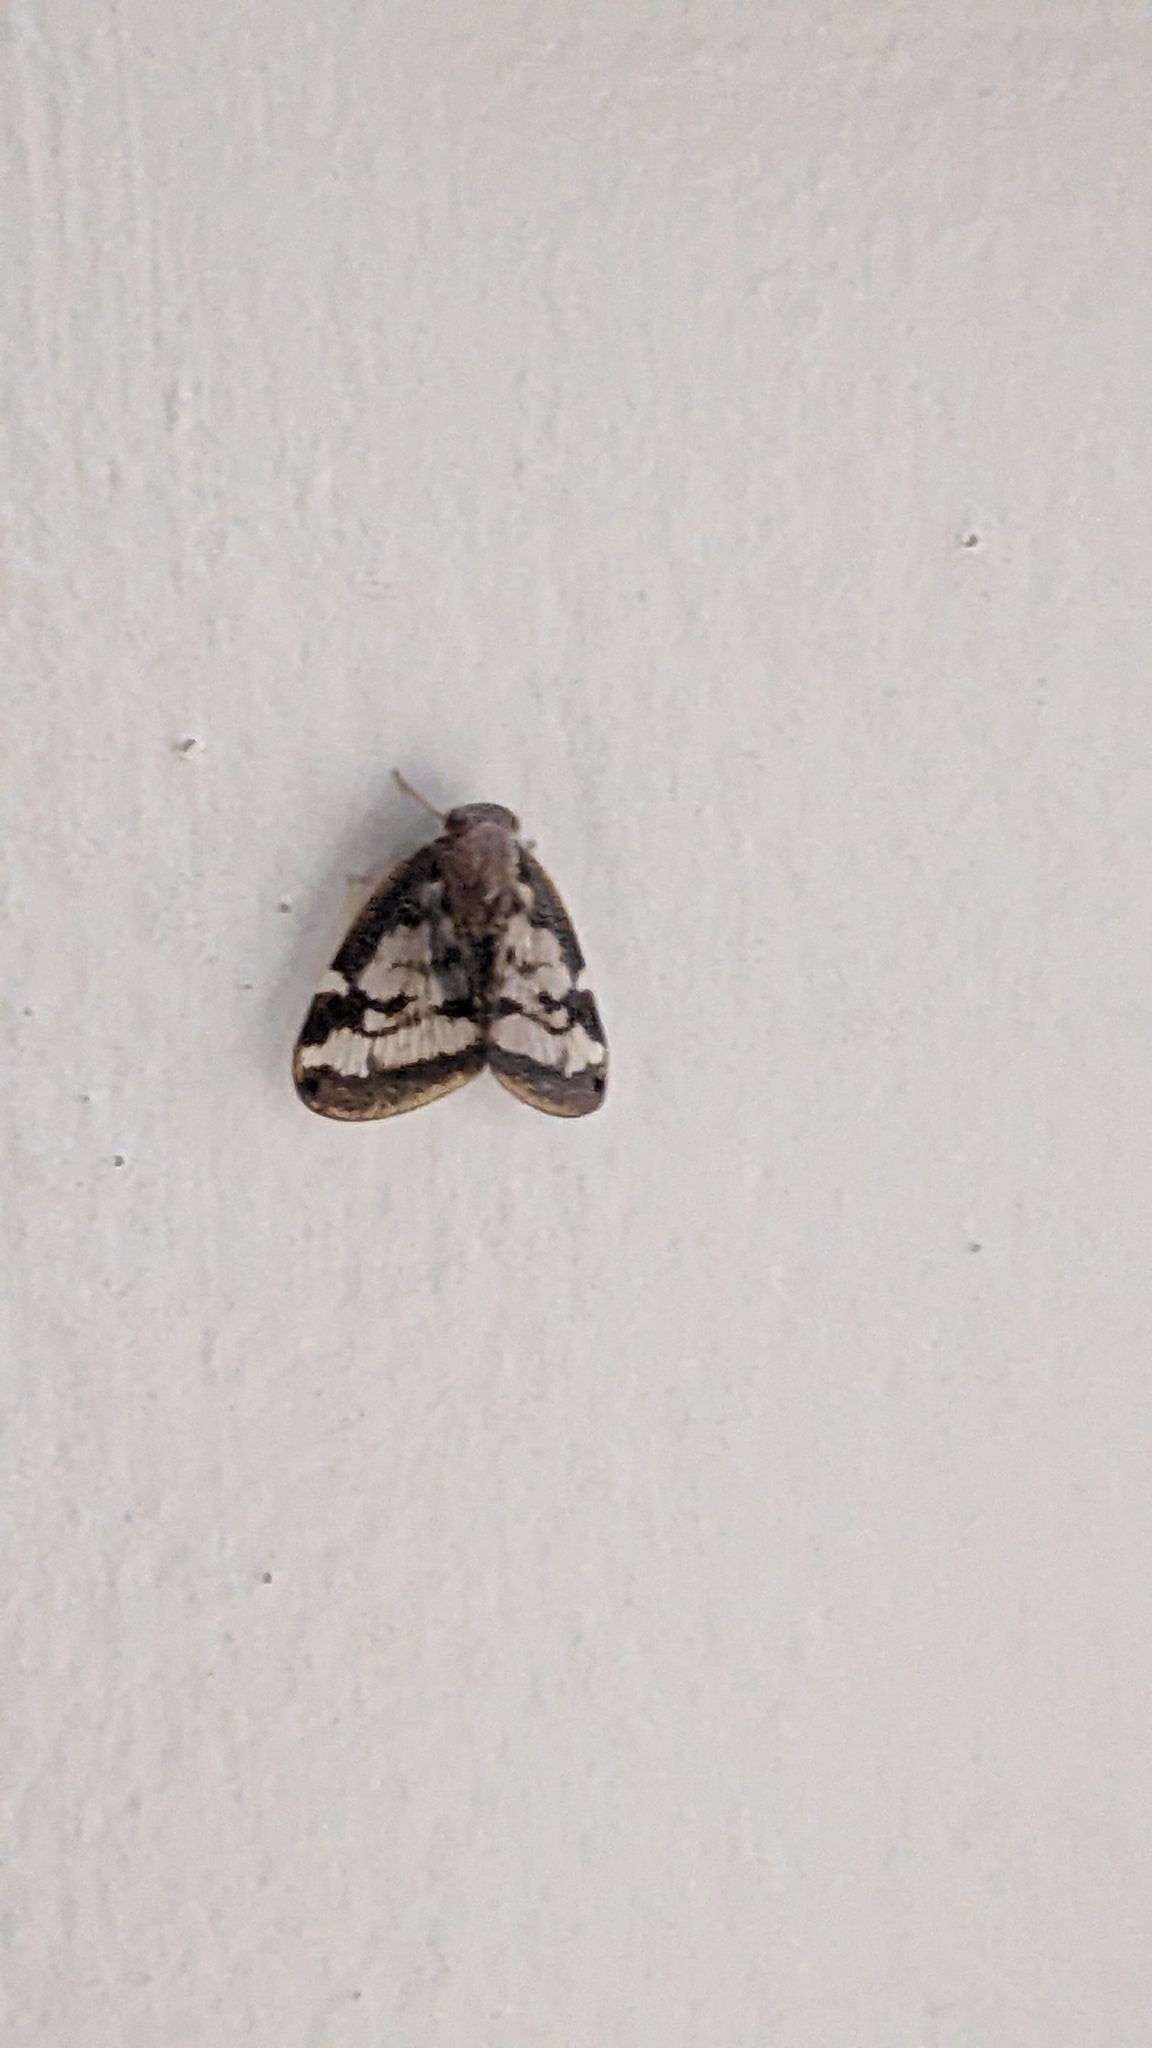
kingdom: Animalia
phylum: Arthropoda
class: Insecta
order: Hemiptera
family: Ricaniidae
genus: Scolypopa
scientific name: Scolypopa australis
